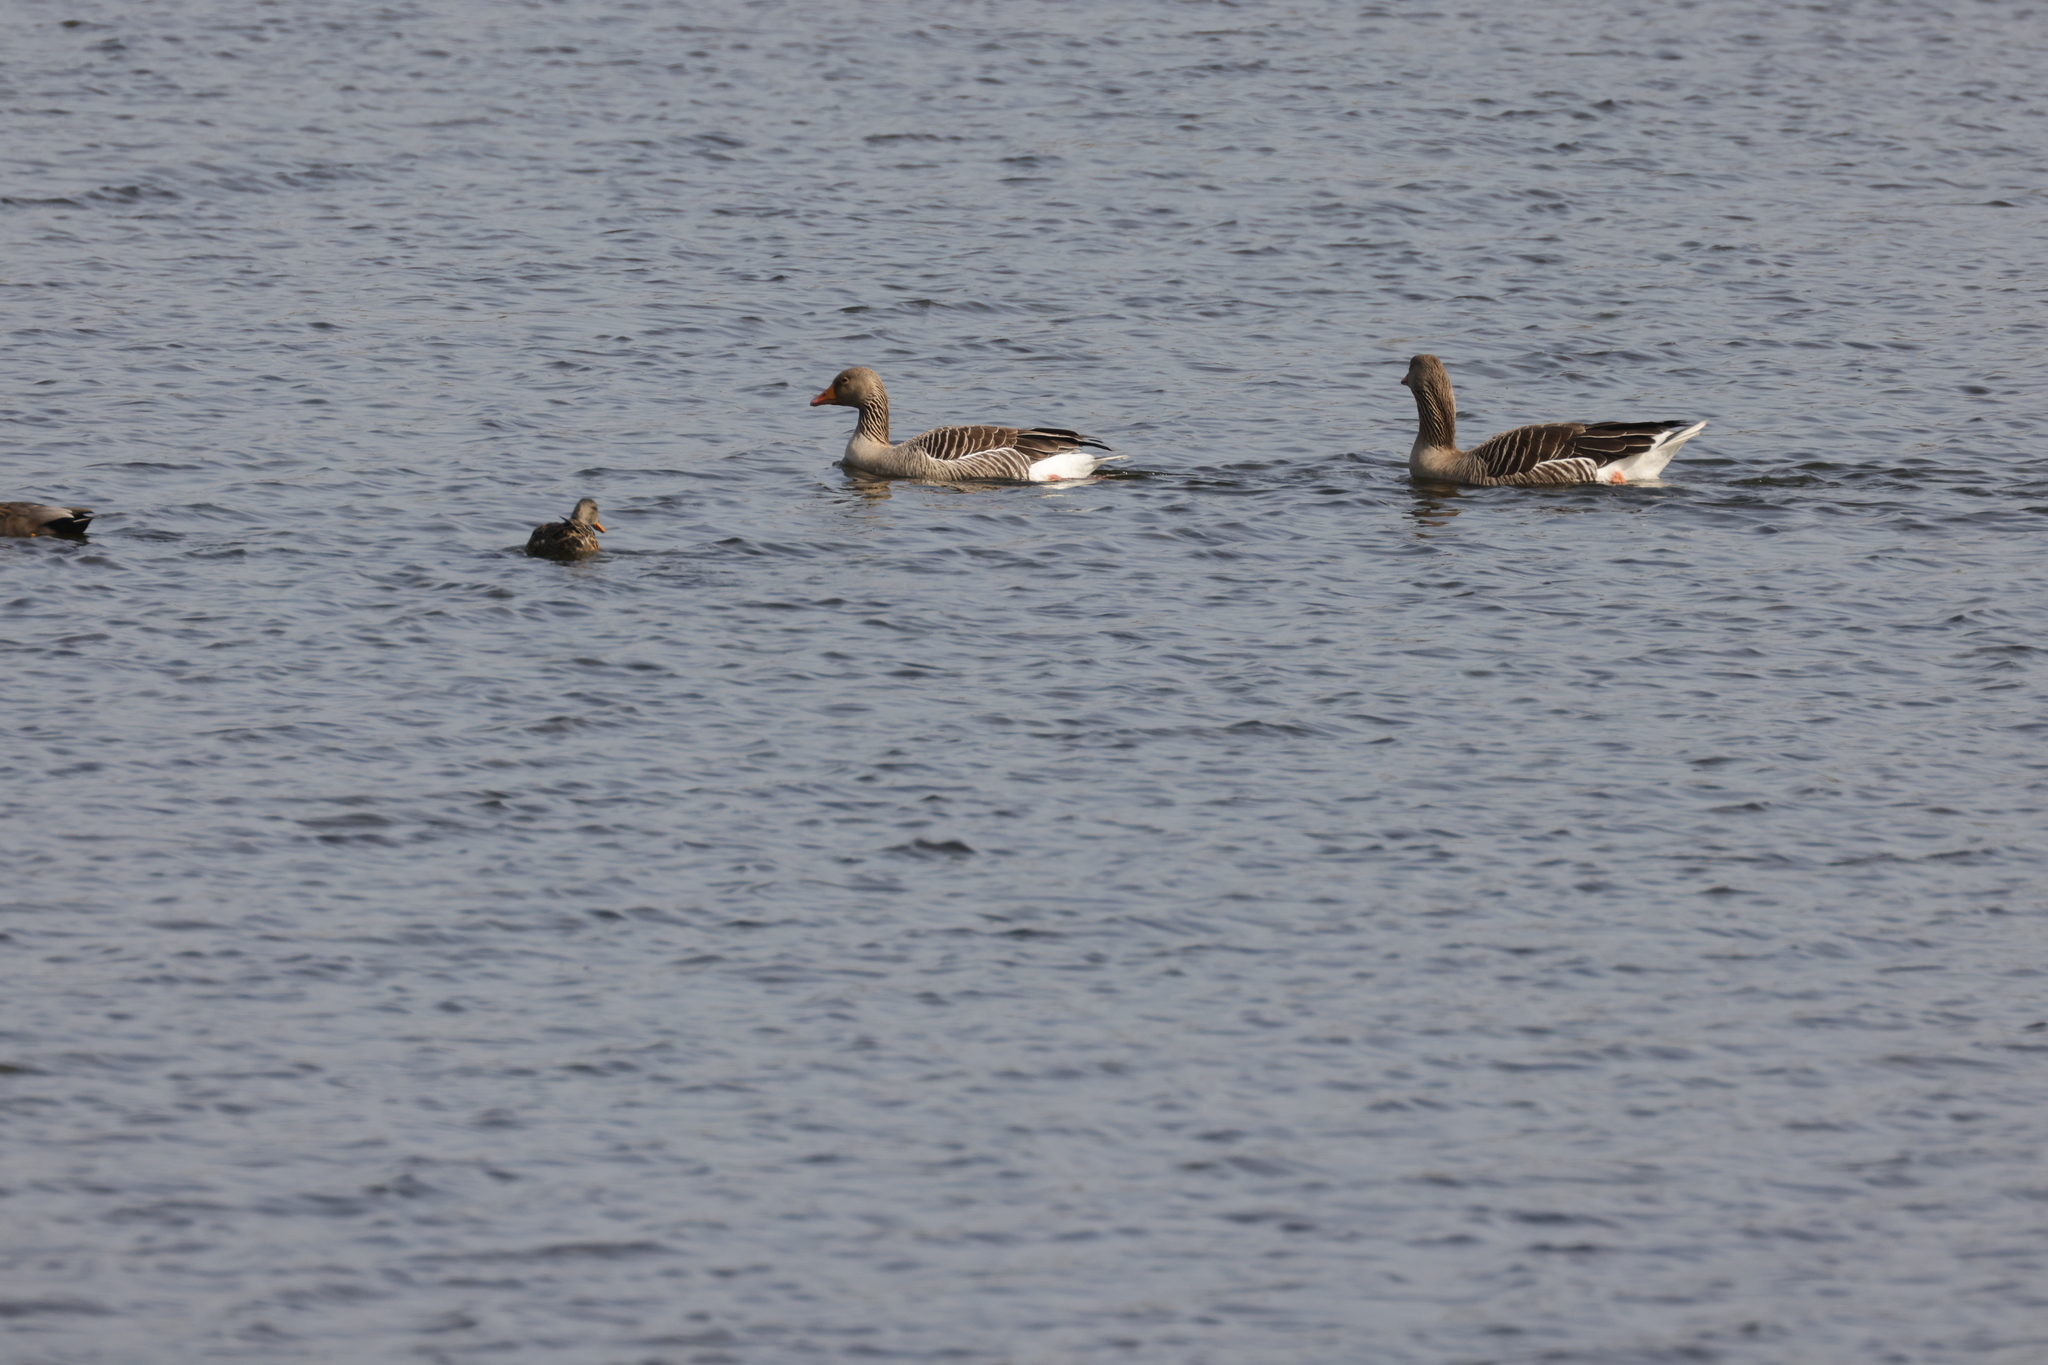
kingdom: Animalia
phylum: Chordata
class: Aves
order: Anseriformes
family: Anatidae
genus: Anser
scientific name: Anser anser
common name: Greylag goose
